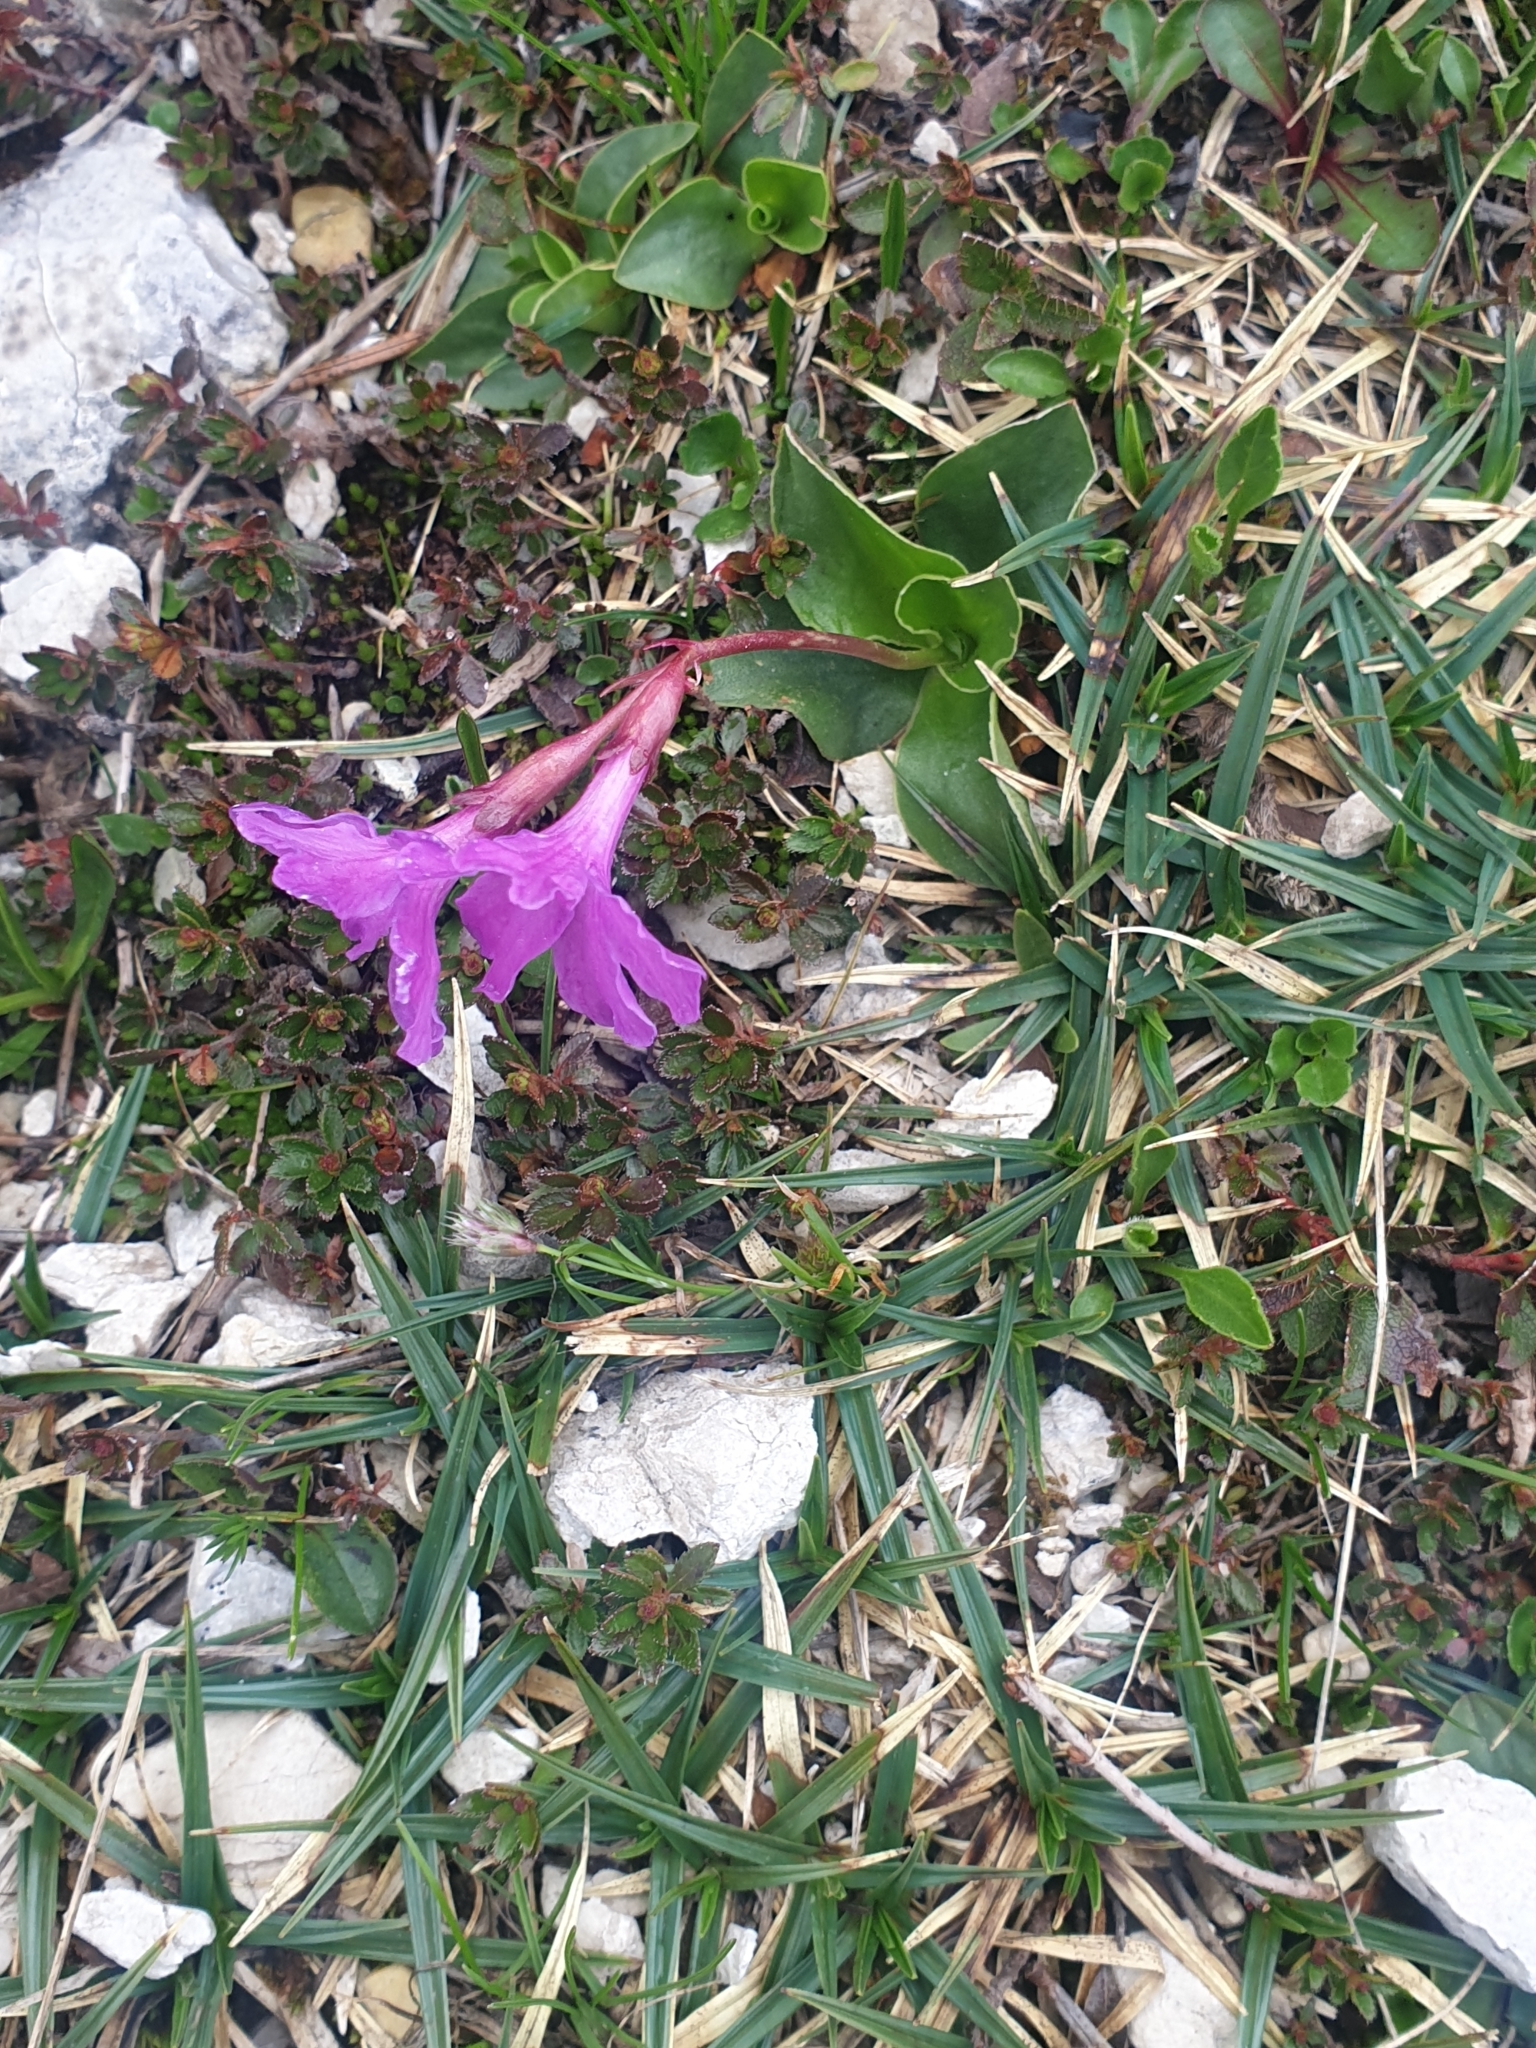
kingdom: Plantae
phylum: Tracheophyta
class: Magnoliopsida
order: Ericales
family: Primulaceae
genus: Primula
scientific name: Primula spectabilis
